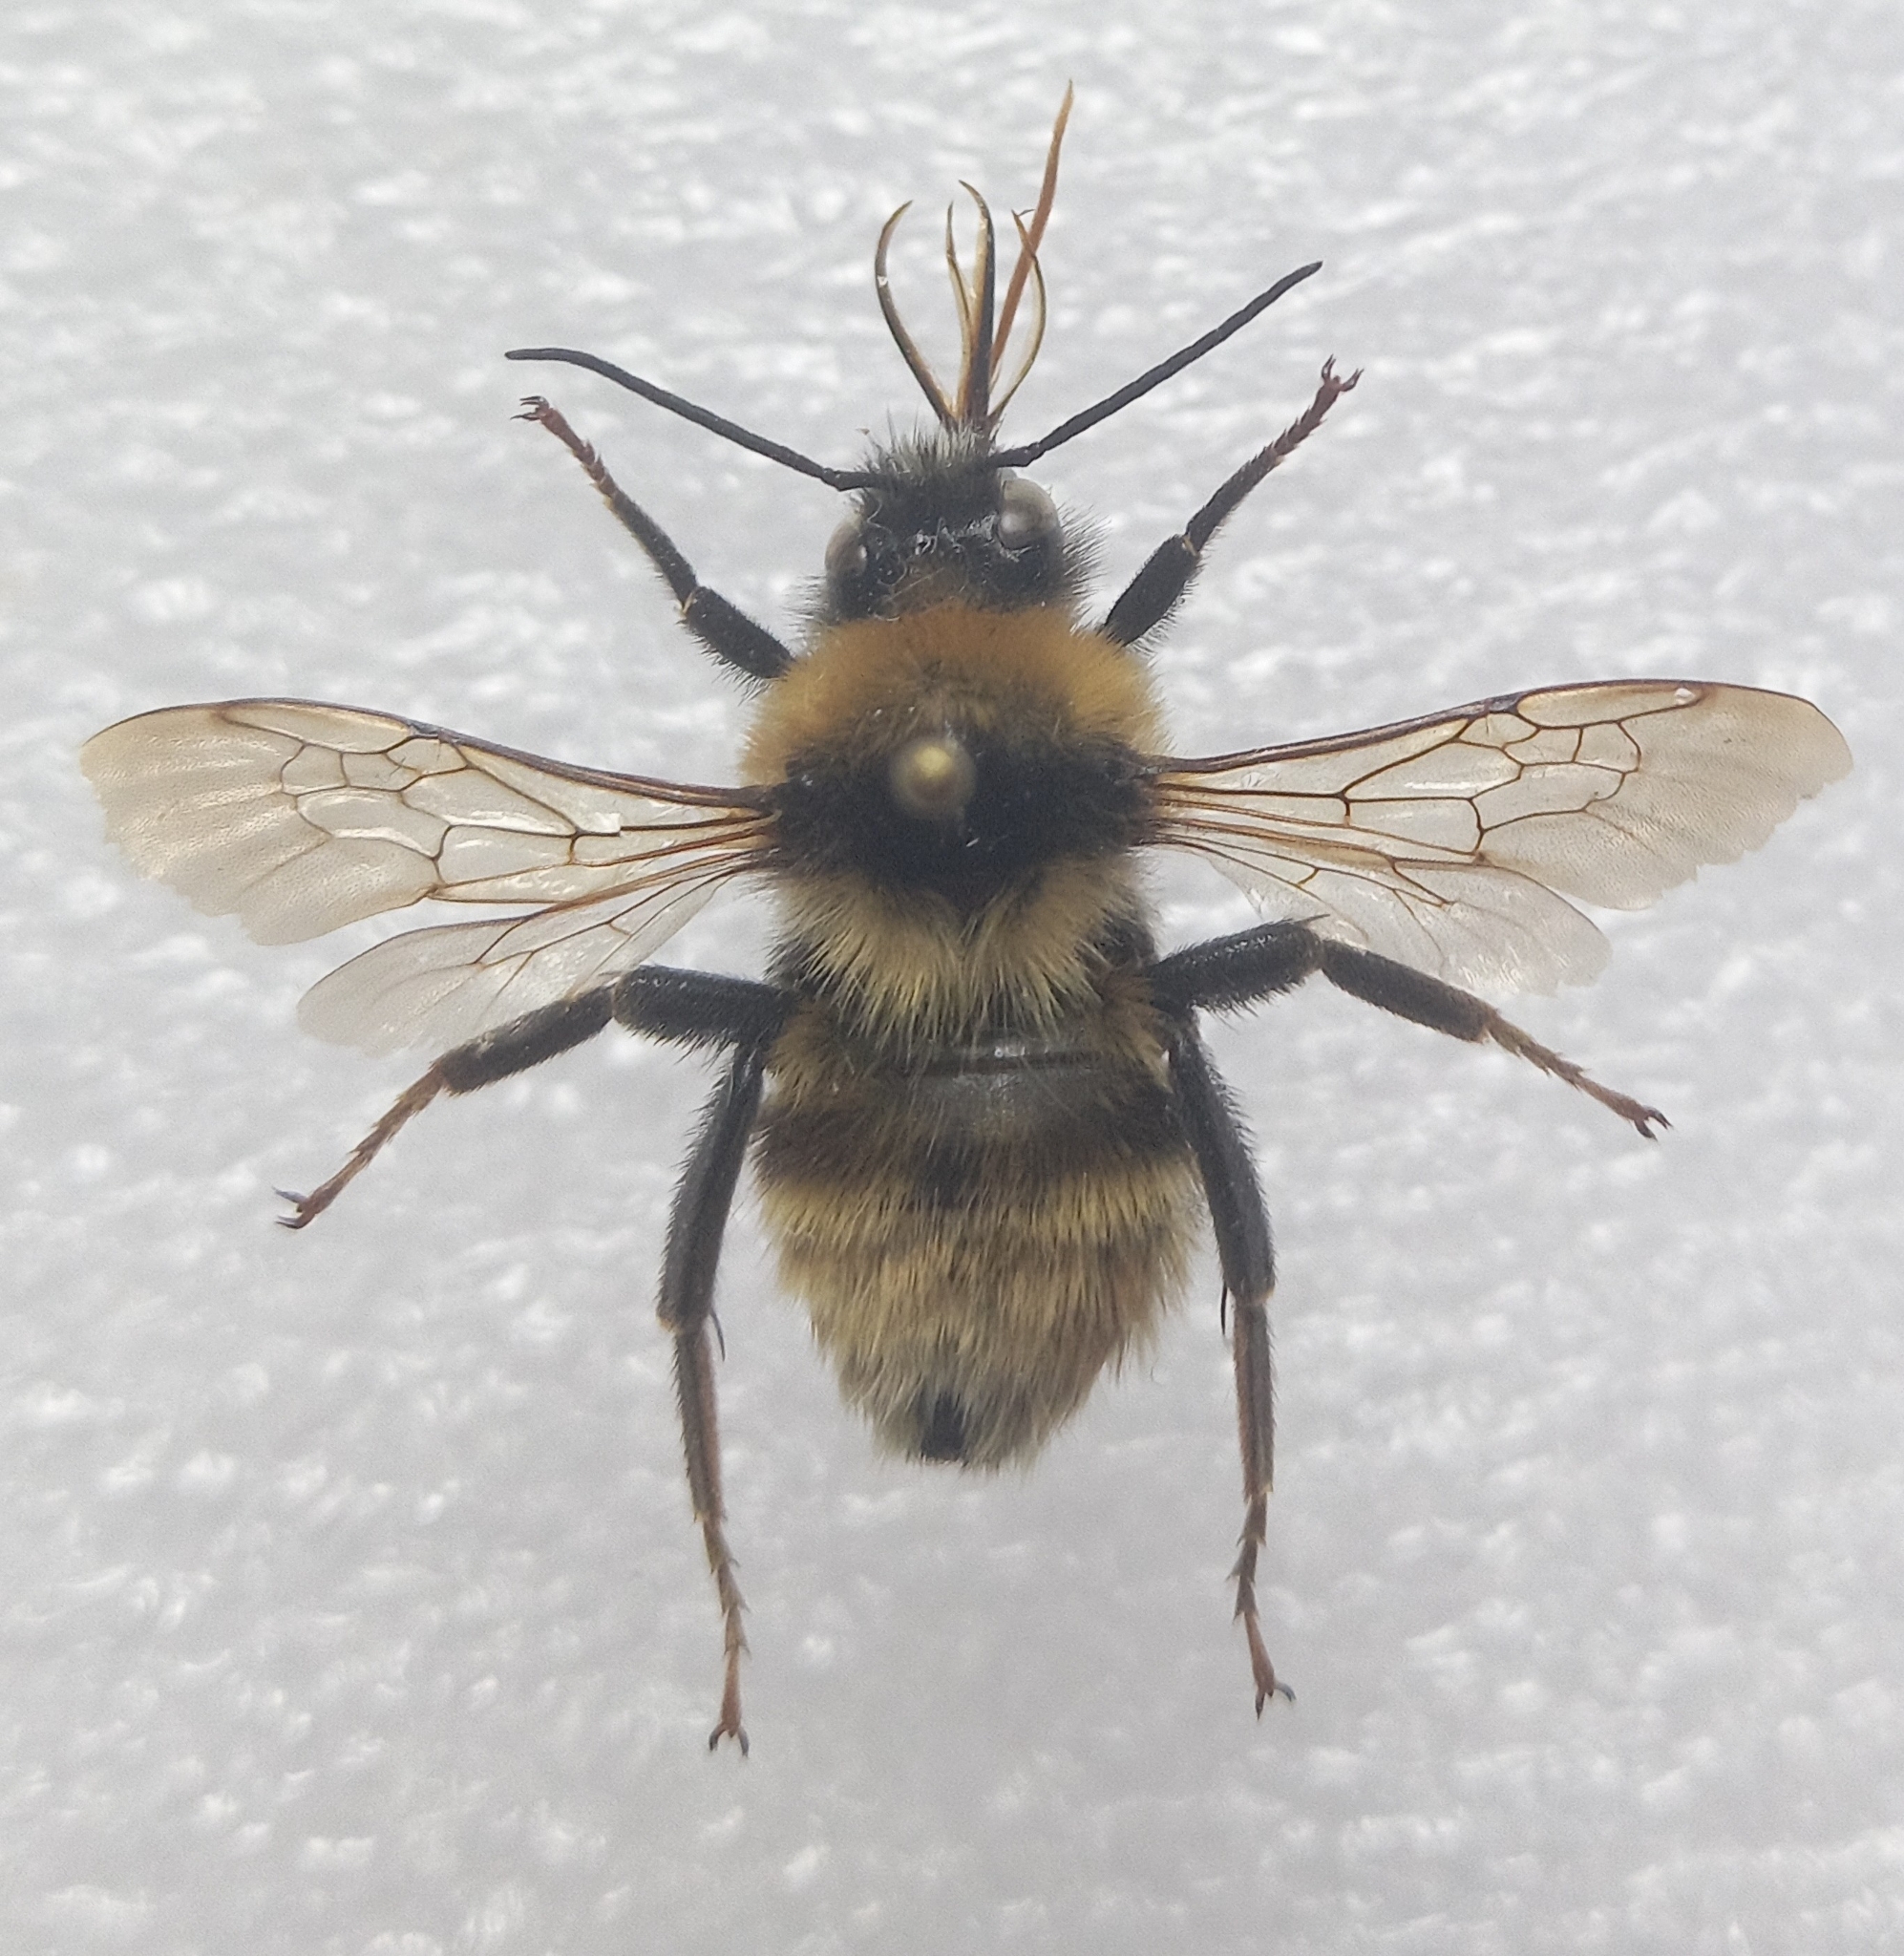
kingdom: Animalia
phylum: Arthropoda
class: Insecta
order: Hymenoptera
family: Apidae
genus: Bombus
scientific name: Bombus distinguendus
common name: Great yellow humble-bee
